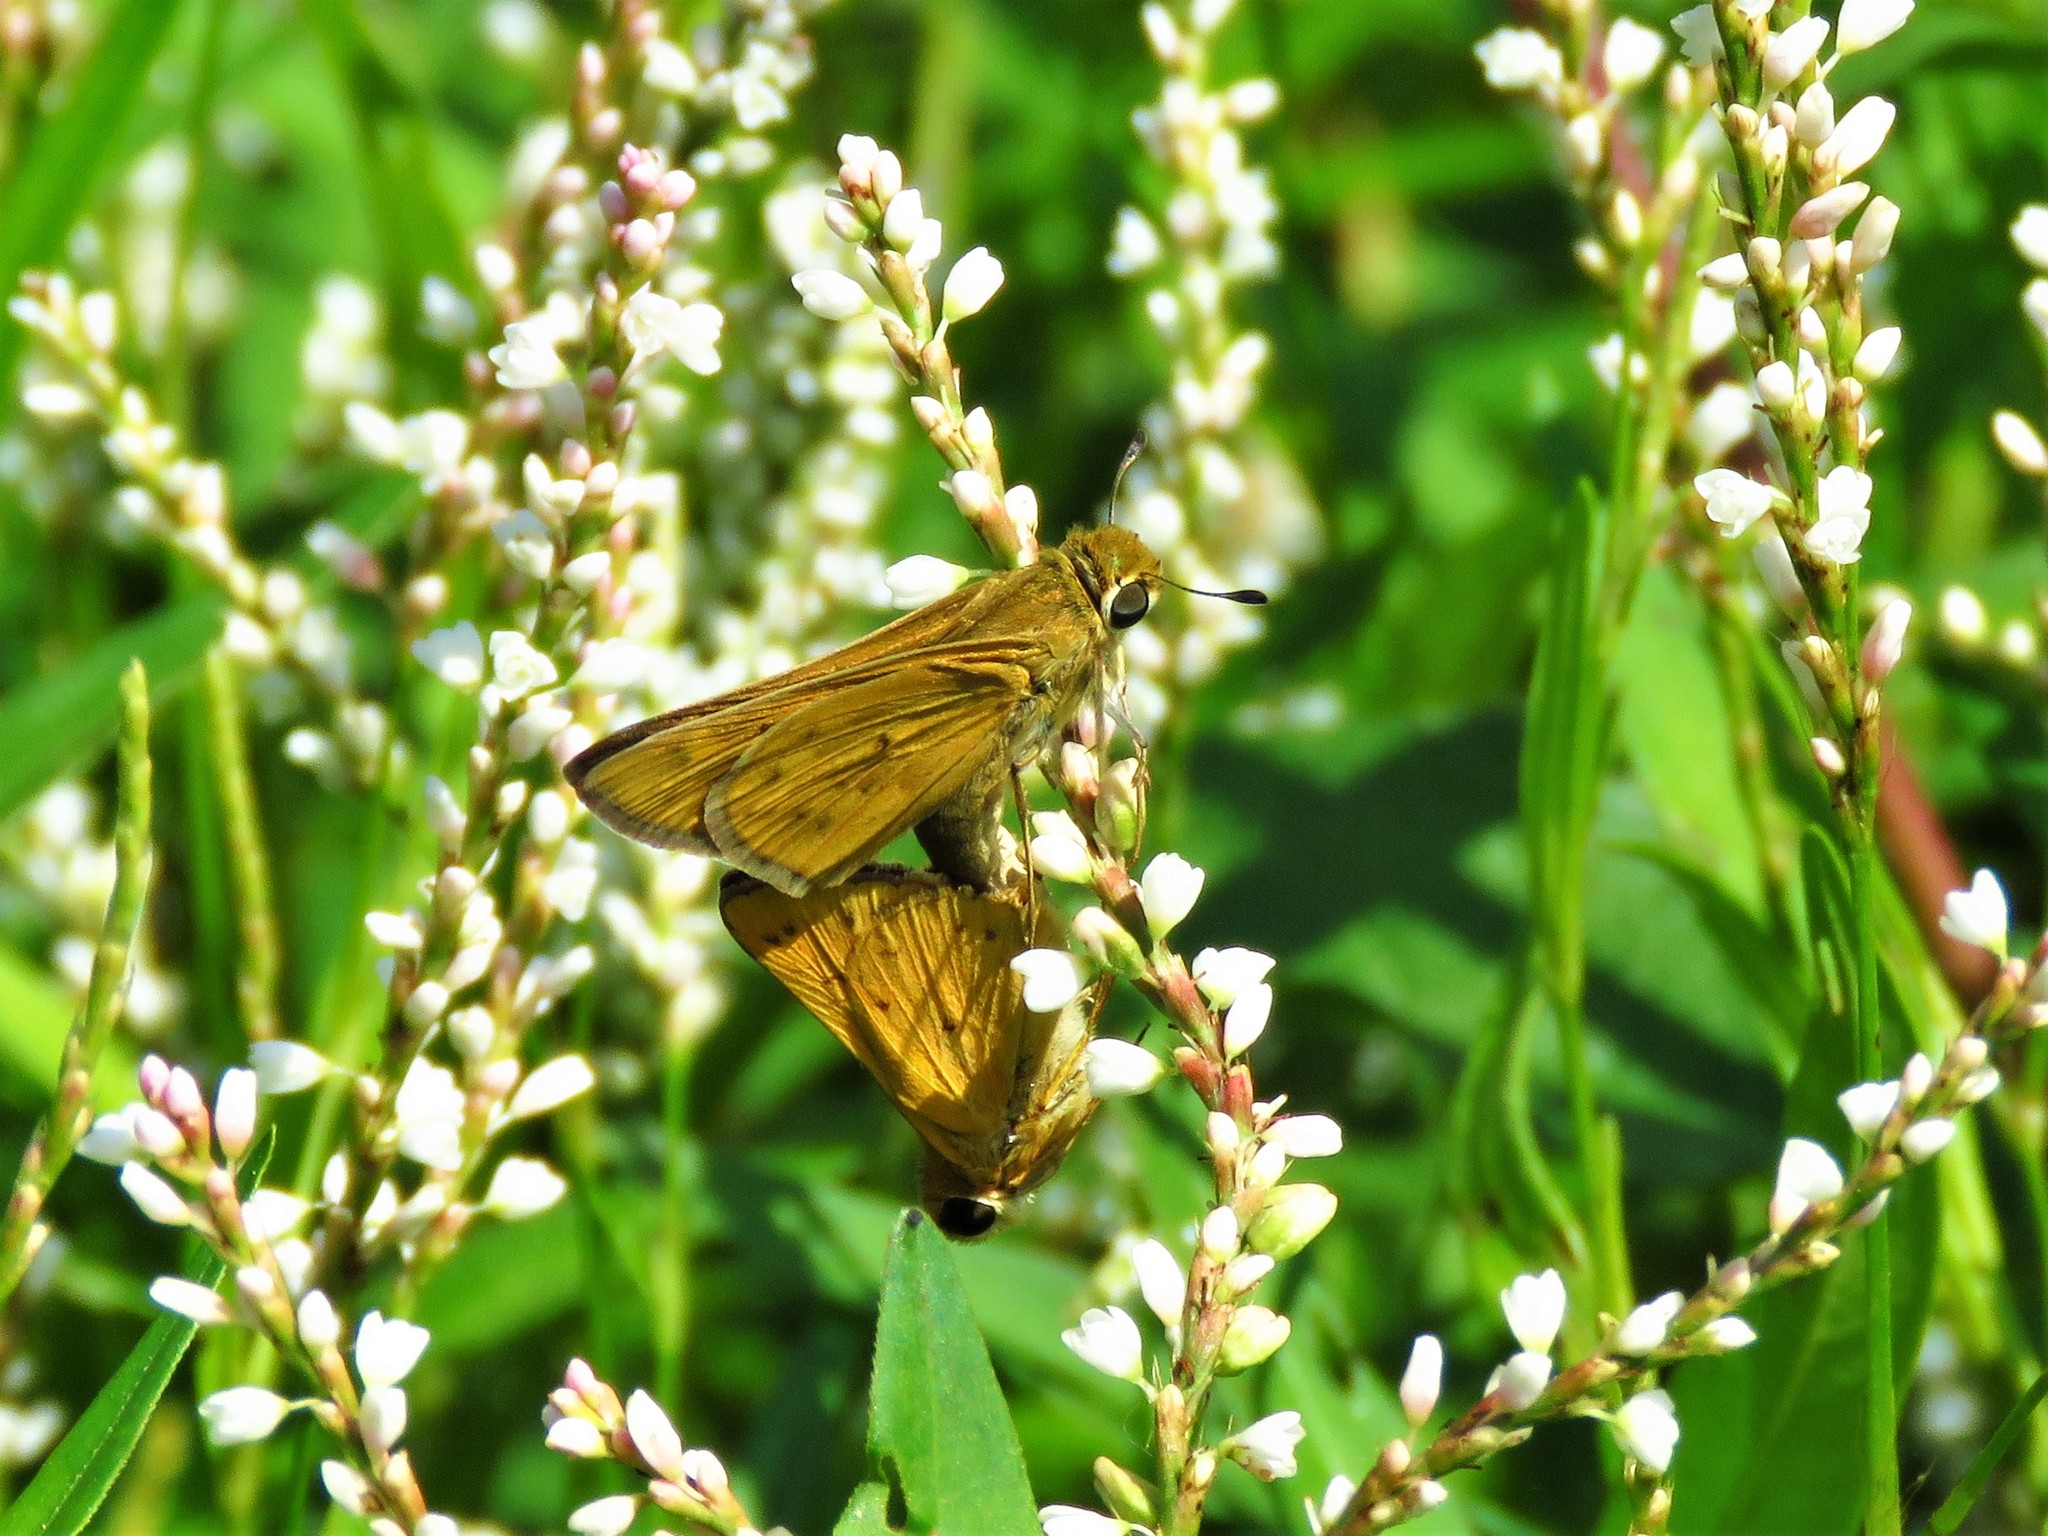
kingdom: Animalia
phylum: Arthropoda
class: Insecta
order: Lepidoptera
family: Hesperiidae
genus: Hylephila
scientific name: Hylephila phyleus
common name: Fiery skipper
